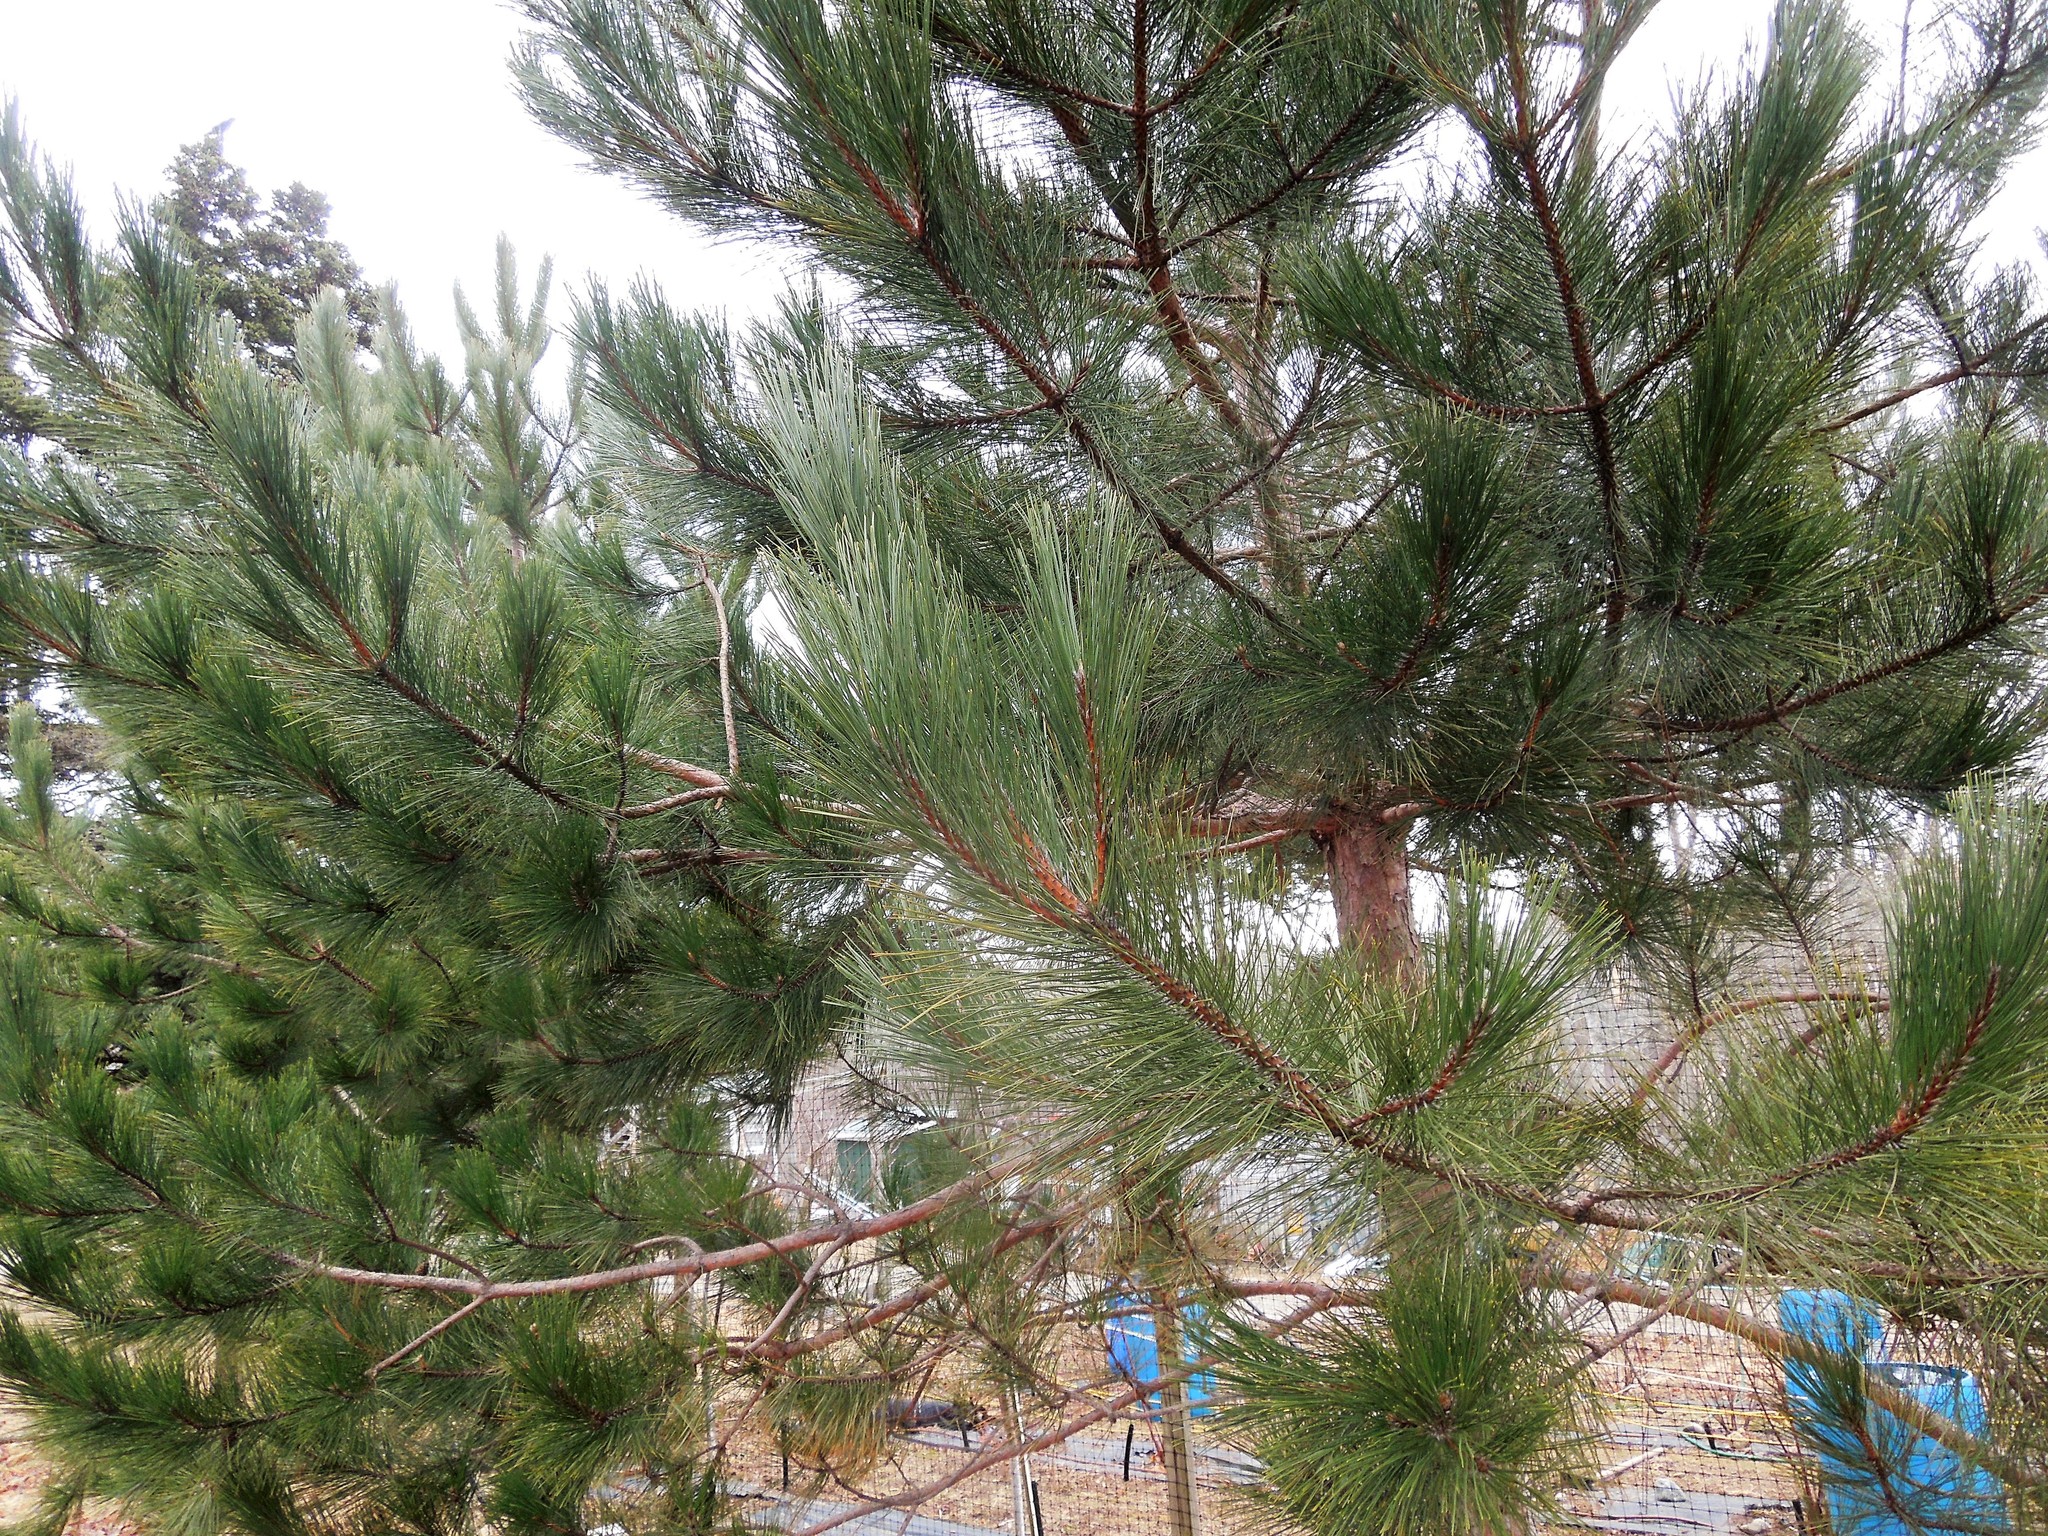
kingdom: Plantae
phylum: Tracheophyta
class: Pinopsida
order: Pinales
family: Pinaceae
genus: Pinus
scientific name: Pinus resinosa
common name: Norway pine
